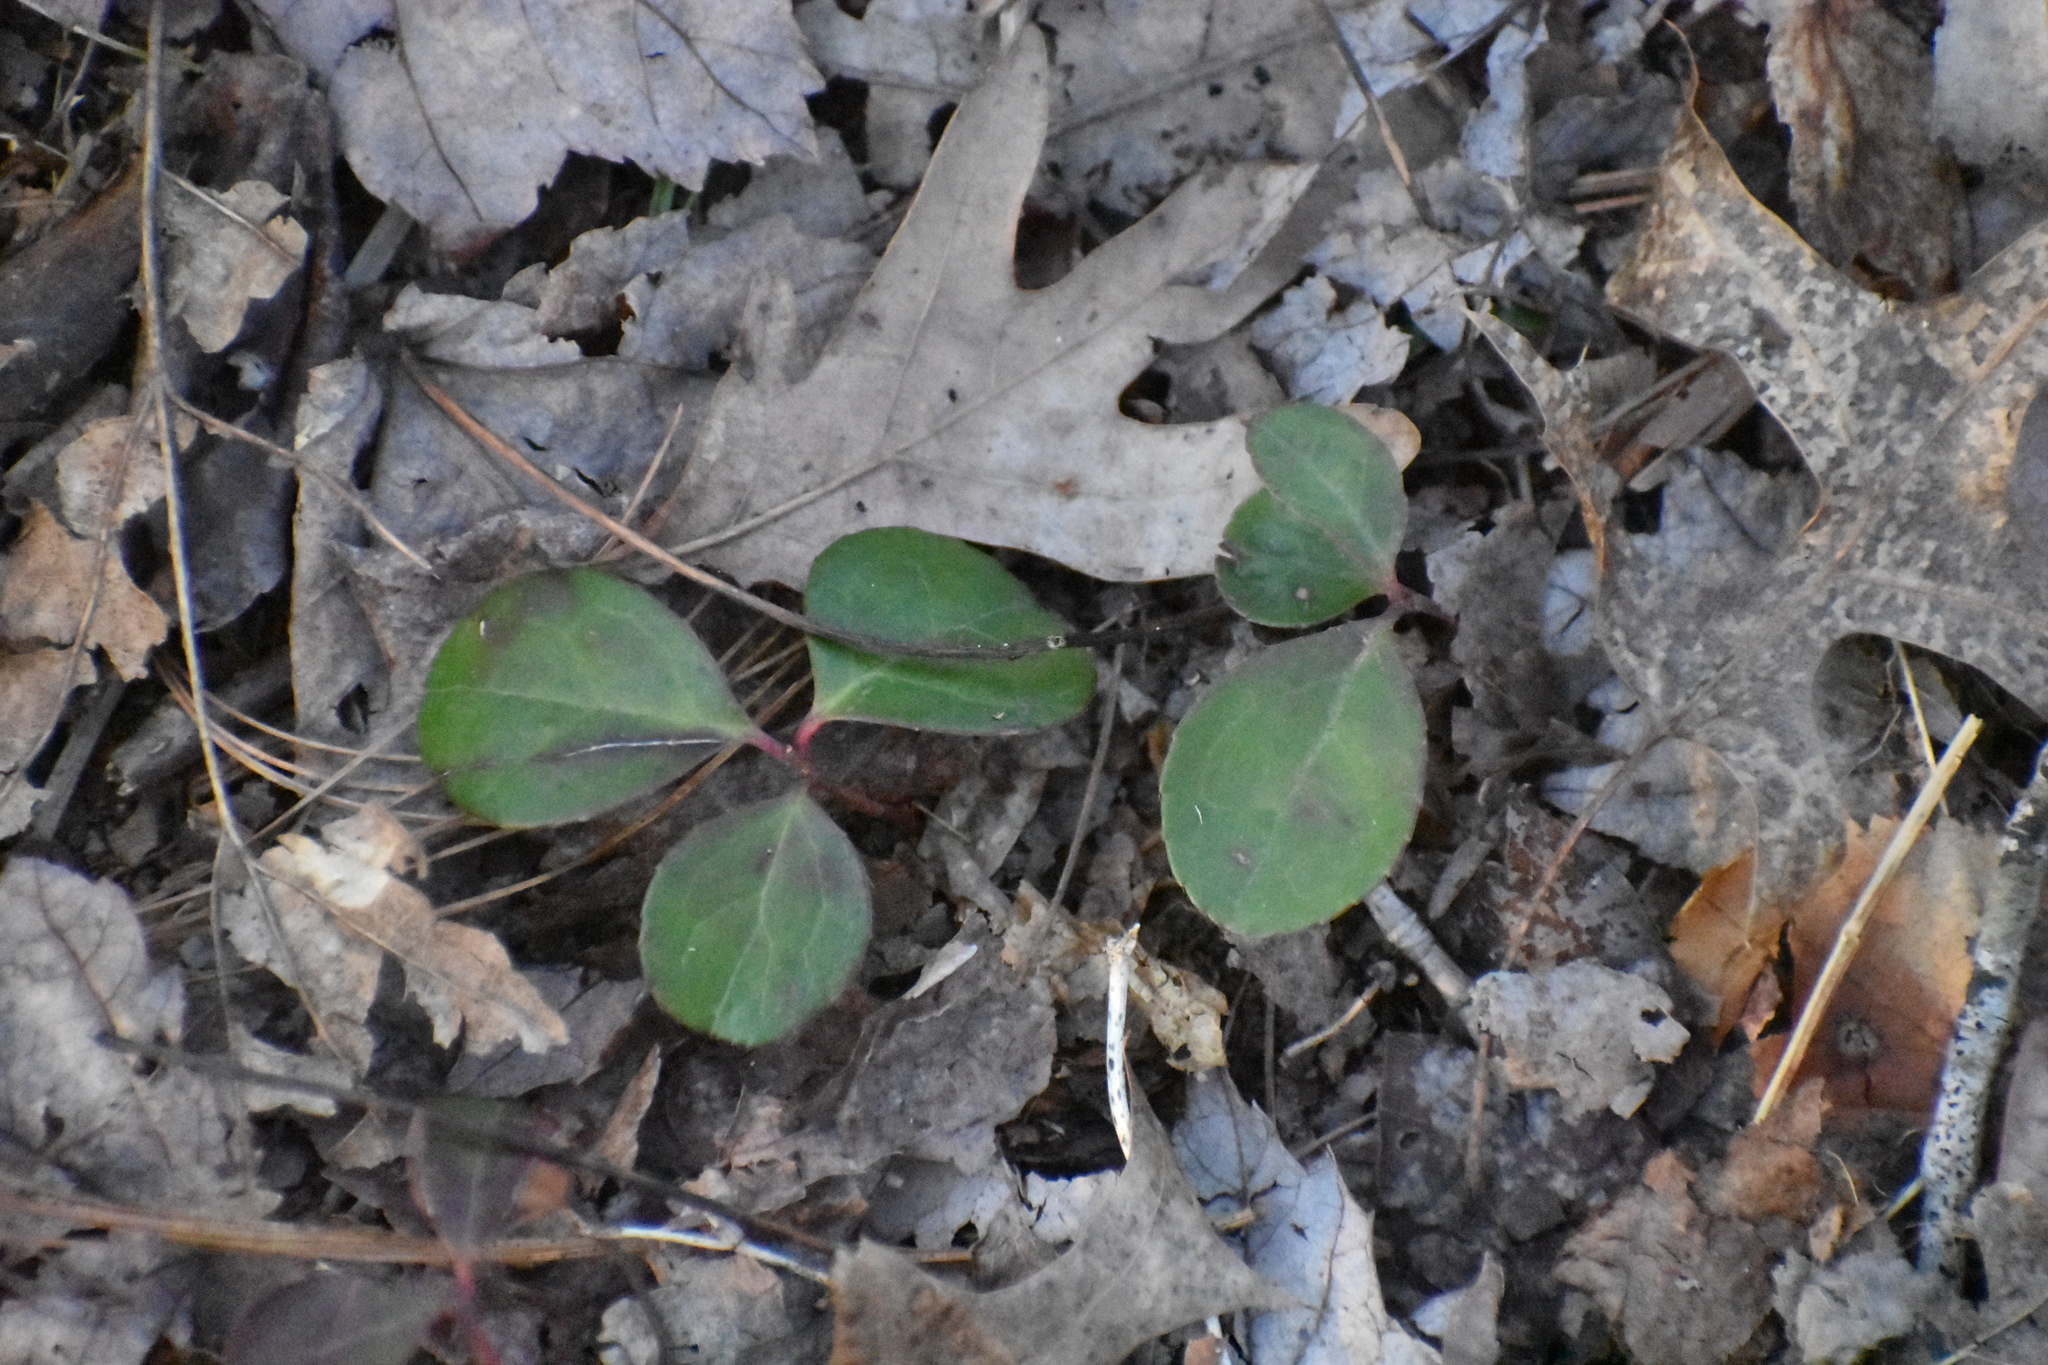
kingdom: Plantae
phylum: Tracheophyta
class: Magnoliopsida
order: Ericales
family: Ericaceae
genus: Gaultheria
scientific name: Gaultheria procumbens
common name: Checkerberry
